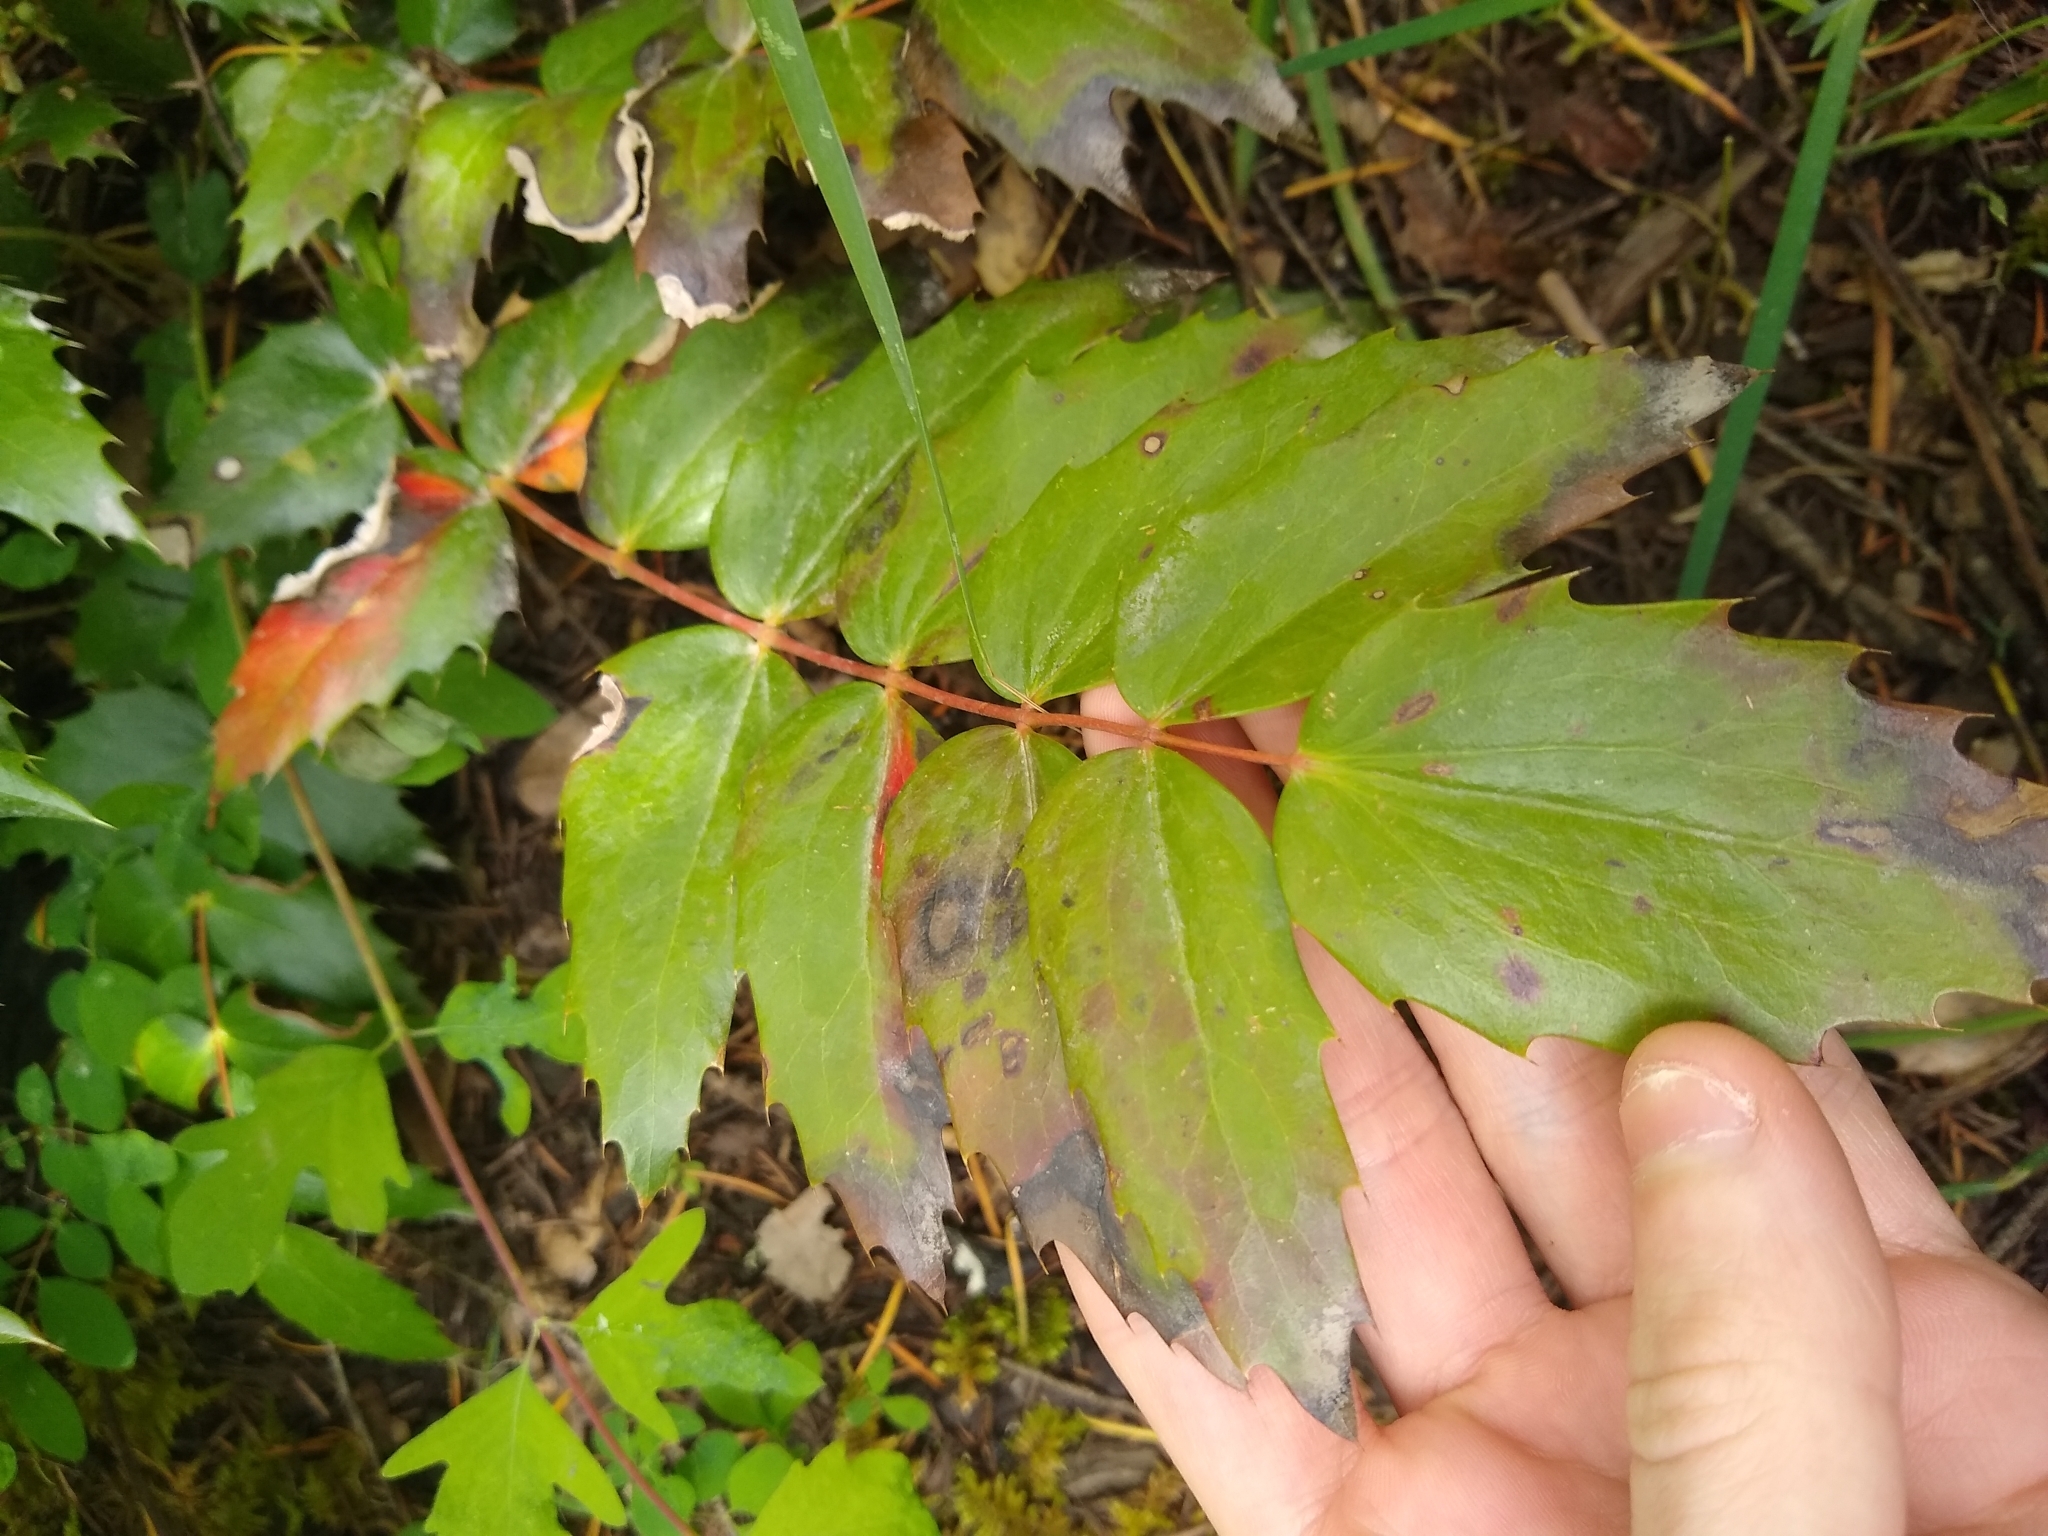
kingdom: Plantae
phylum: Tracheophyta
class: Magnoliopsida
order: Ranunculales
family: Berberidaceae
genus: Mahonia
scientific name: Mahonia nervosa
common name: Cascade oregon-grape
